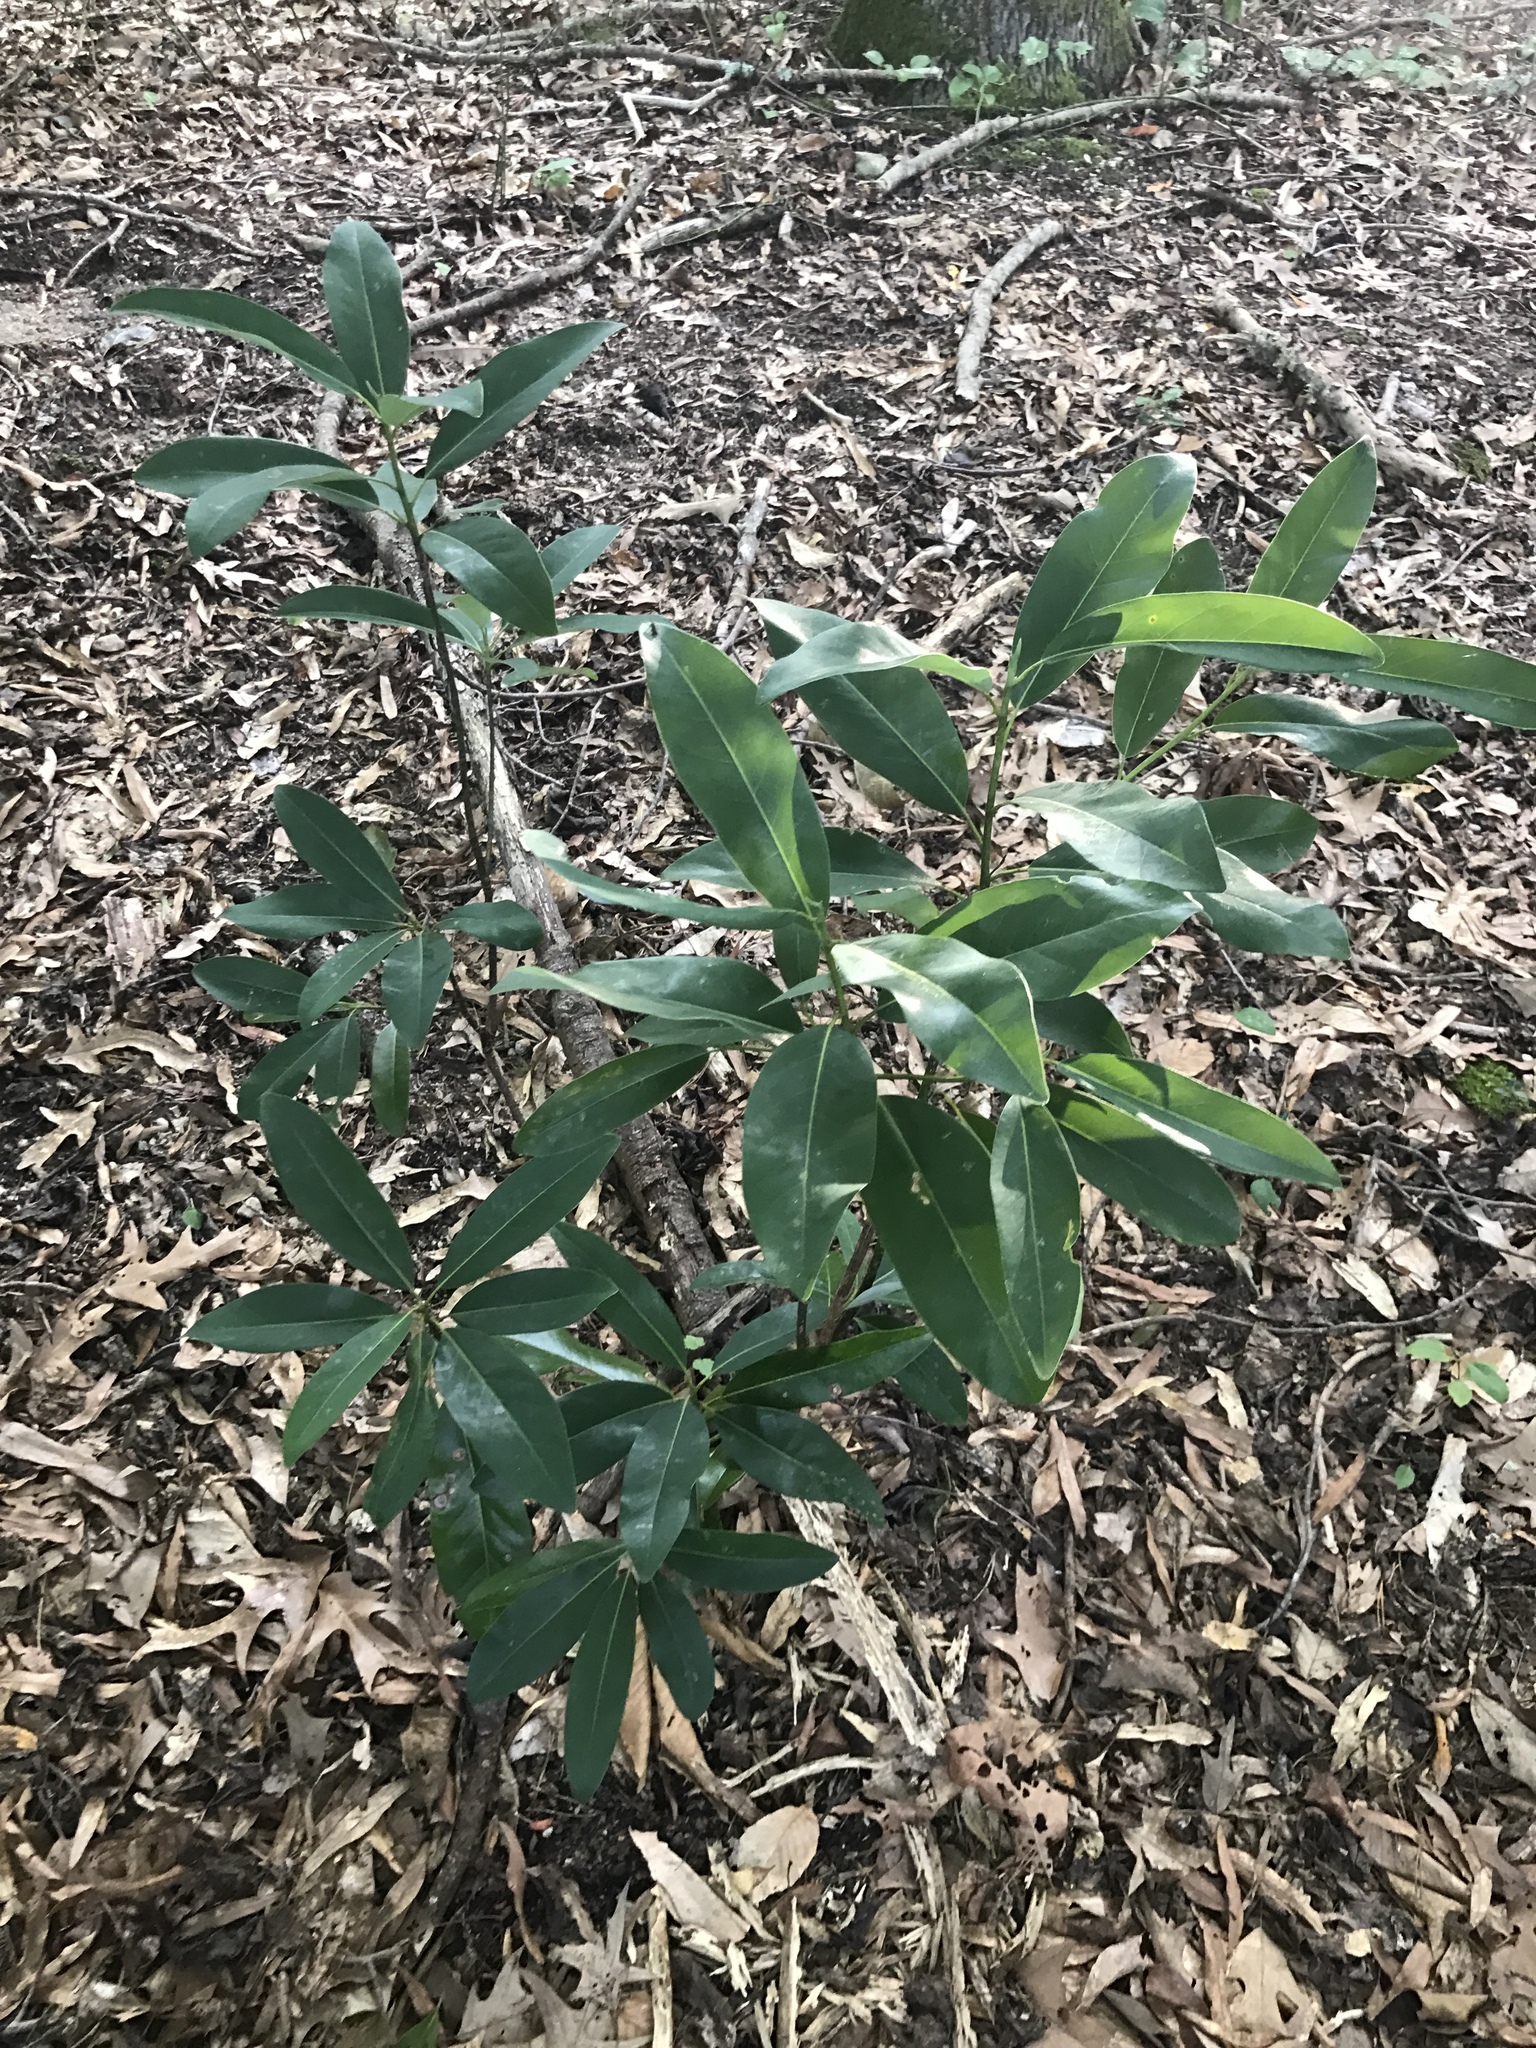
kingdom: Plantae
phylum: Tracheophyta
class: Magnoliopsida
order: Magnoliales
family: Magnoliaceae
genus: Magnolia
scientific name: Magnolia virginiana
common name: Swamp bay
